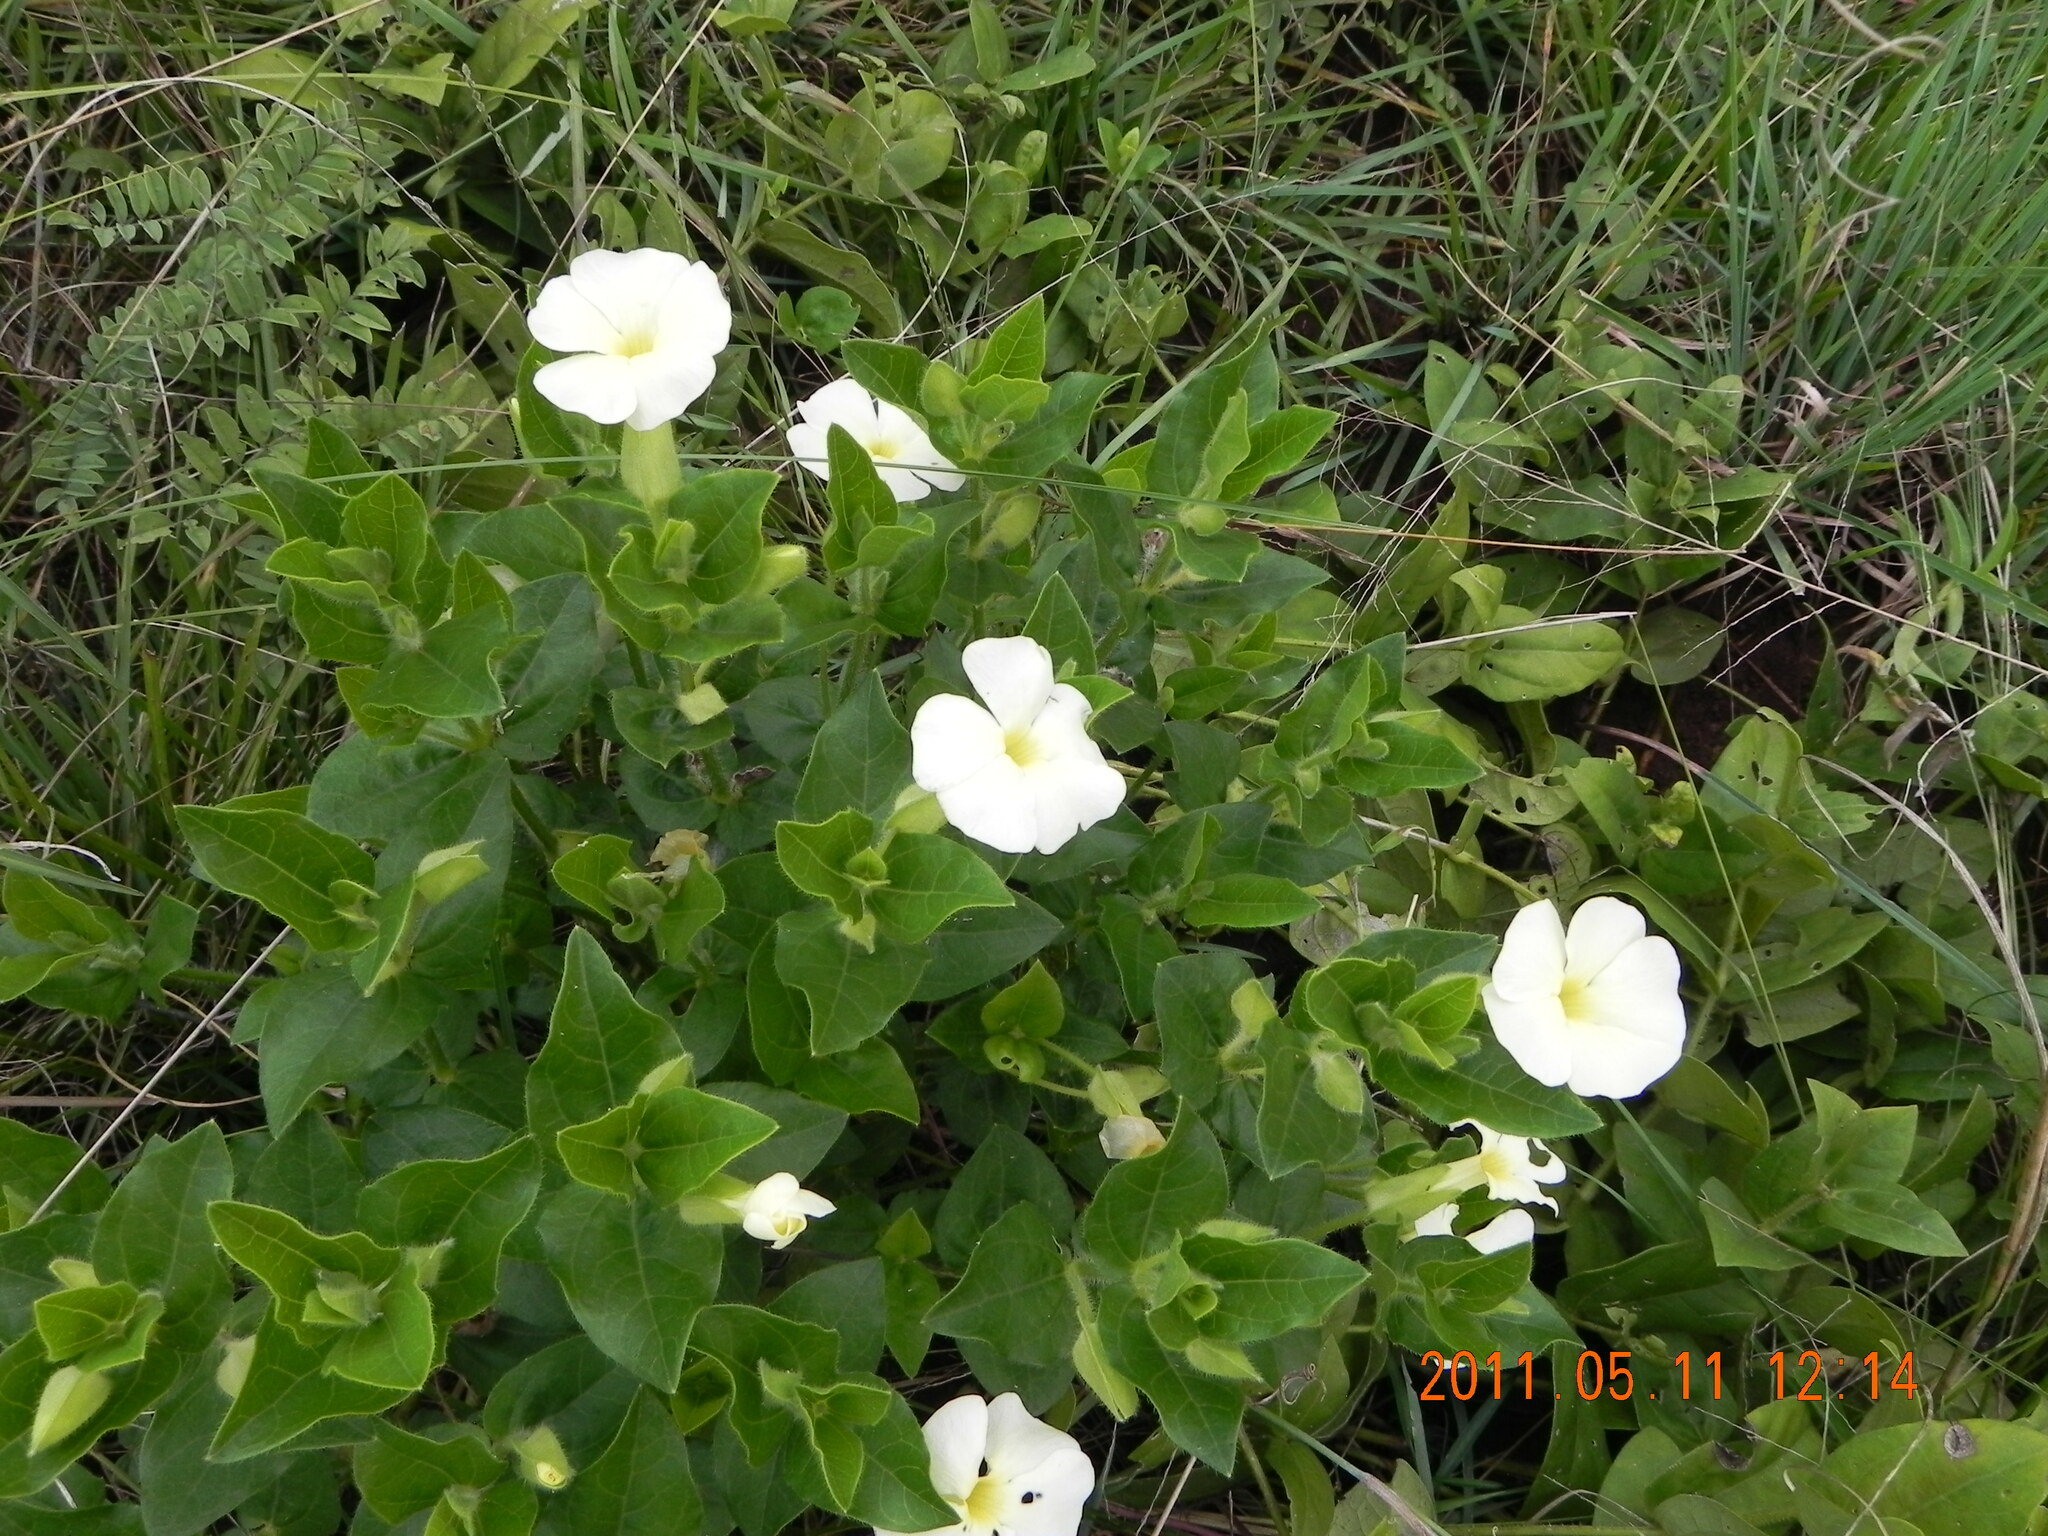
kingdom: Plantae
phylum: Tracheophyta
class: Magnoliopsida
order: Lamiales
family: Acanthaceae
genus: Thunbergia
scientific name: Thunbergia atriplicifolia
